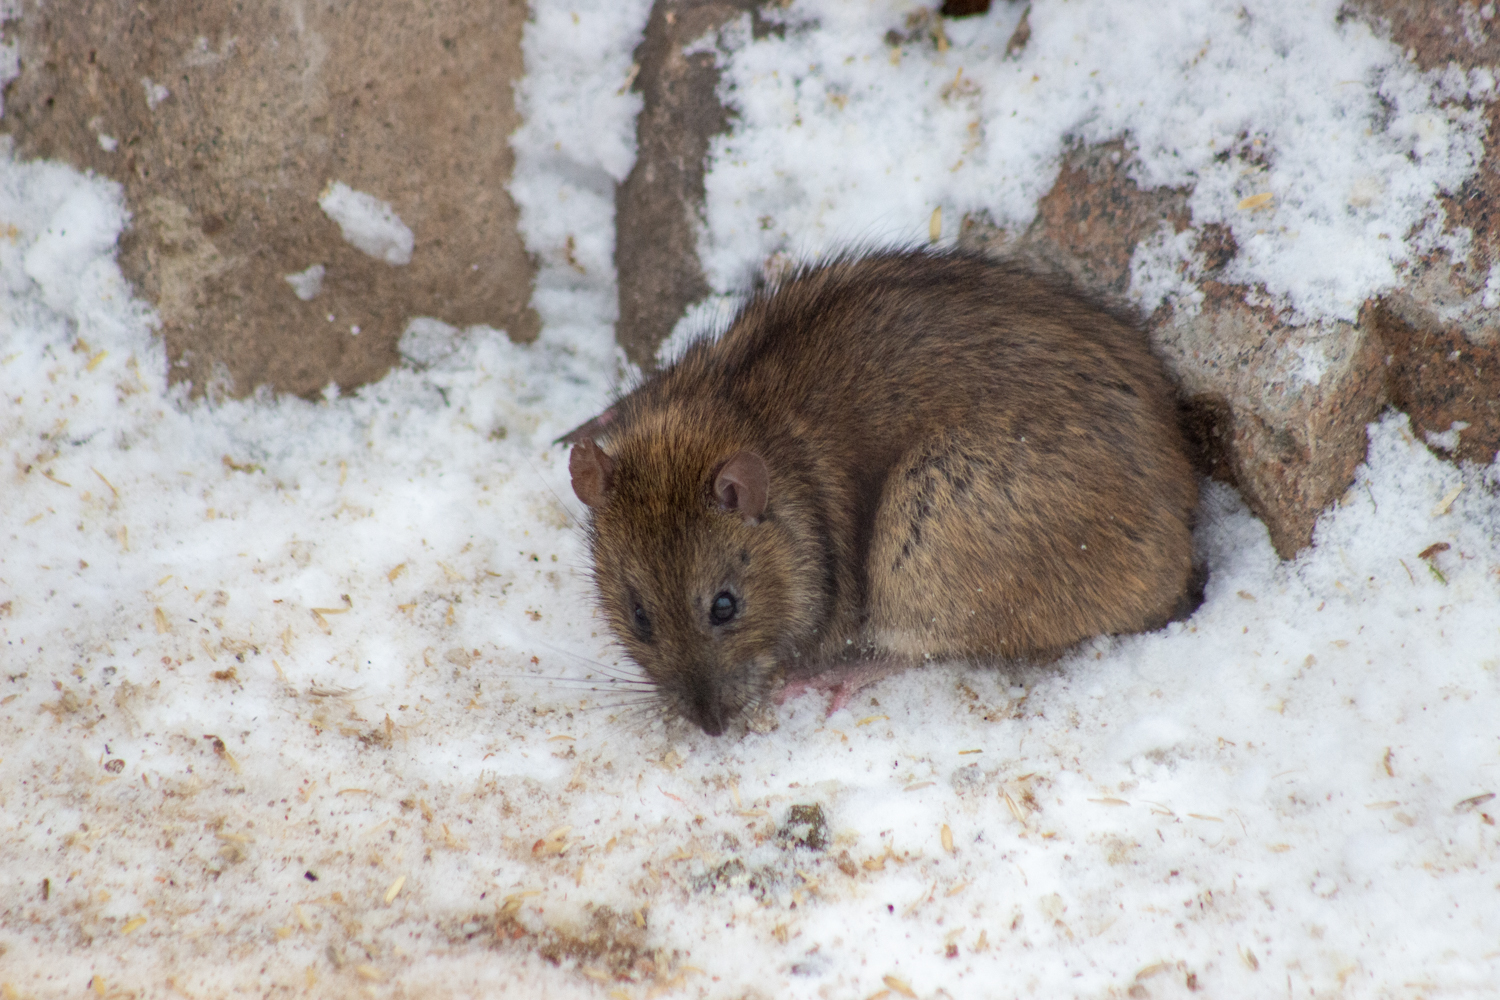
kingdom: Animalia
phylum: Chordata
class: Mammalia
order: Rodentia
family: Muridae
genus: Rattus
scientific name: Rattus norvegicus
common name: Brown rat
